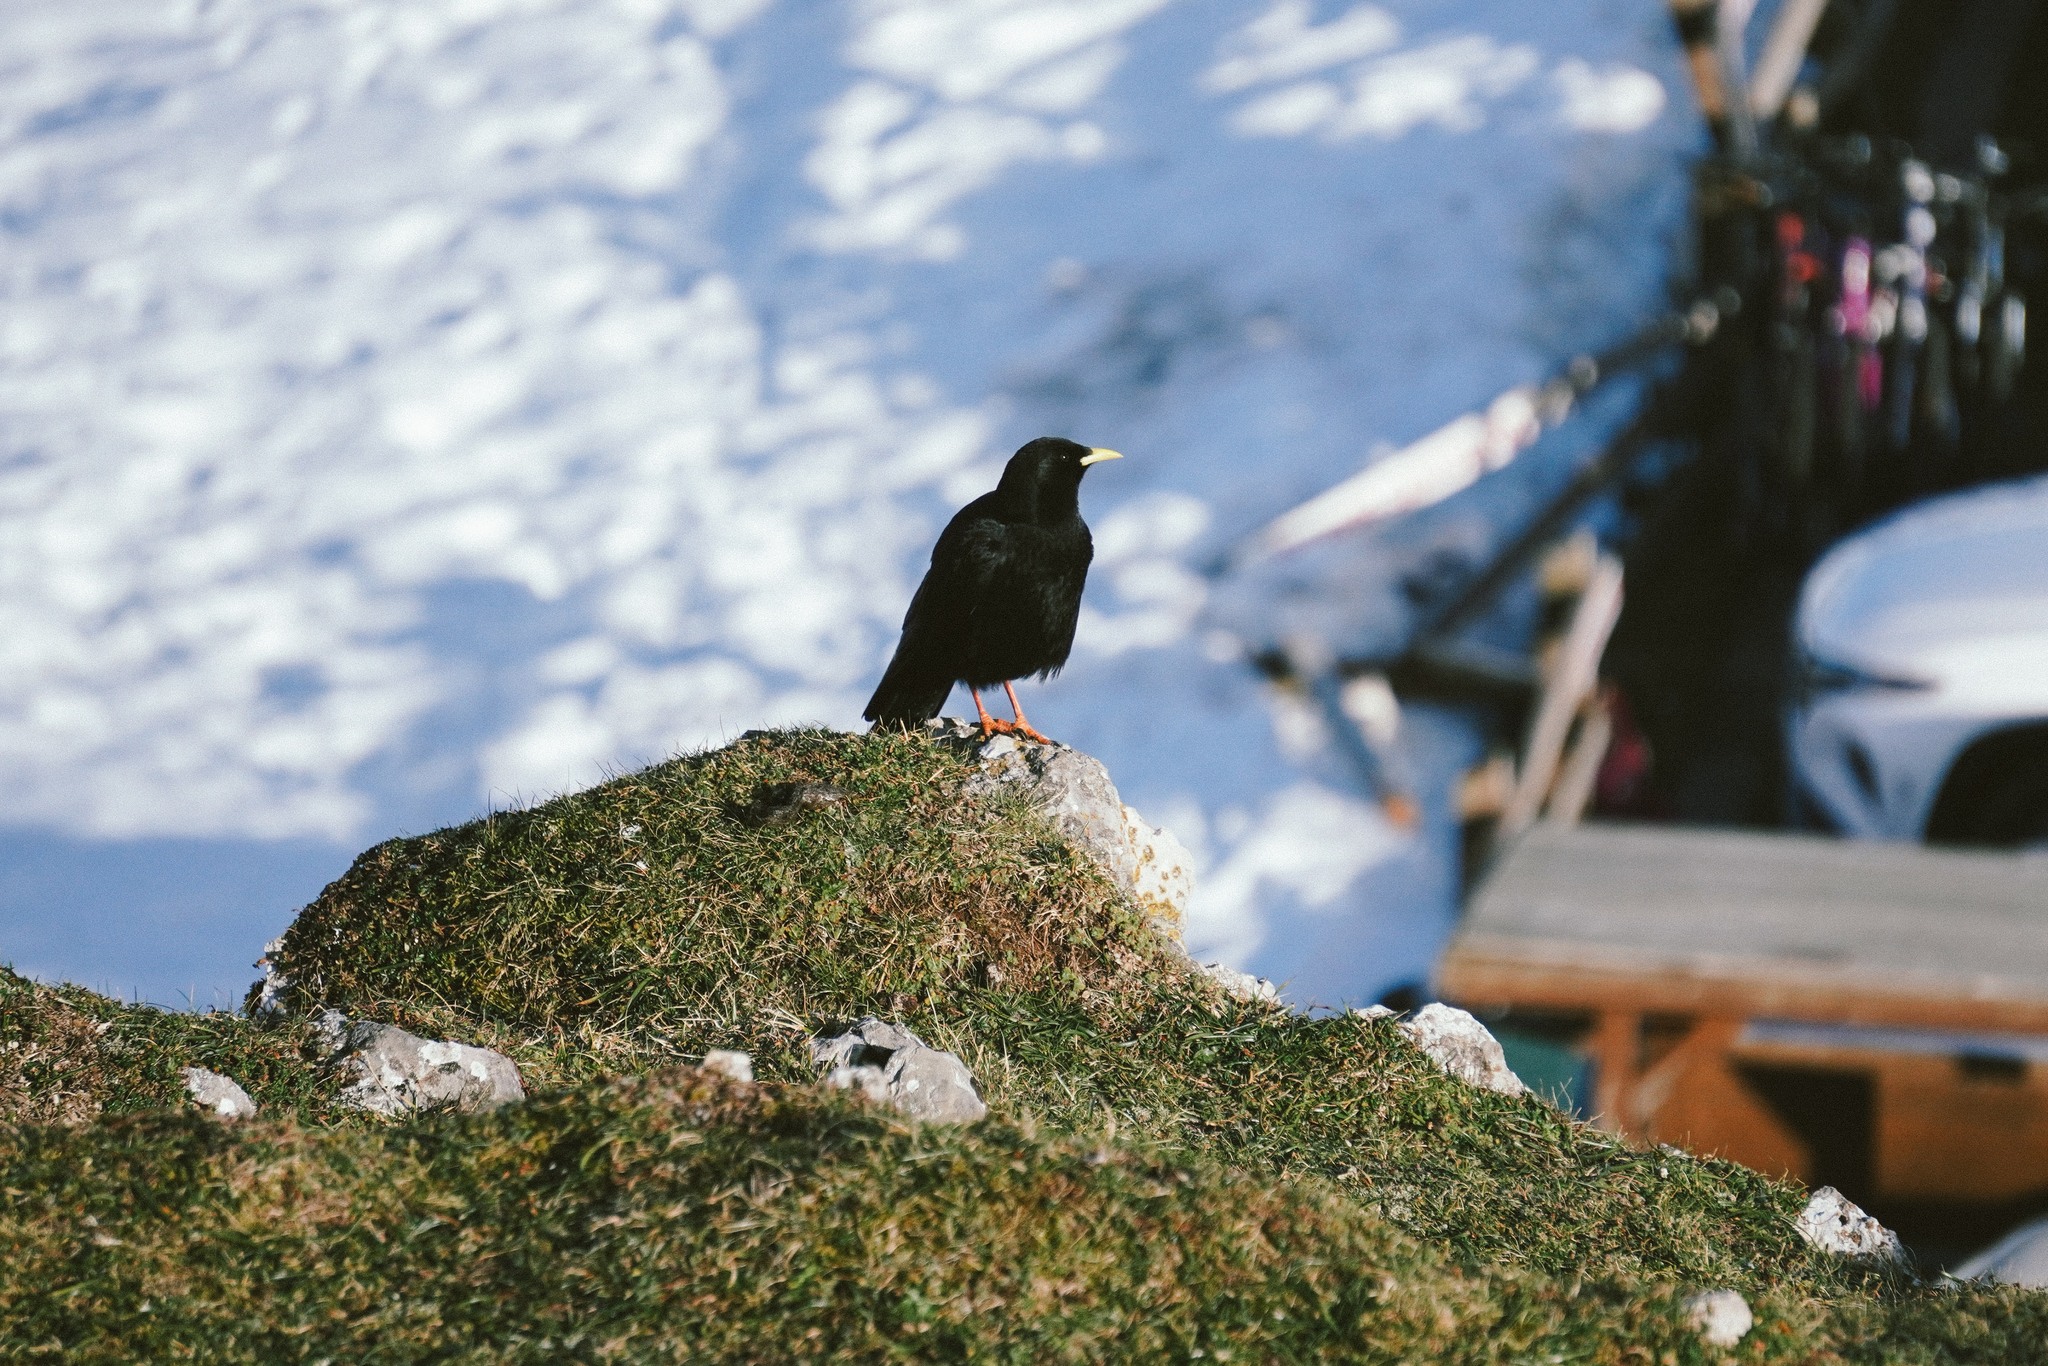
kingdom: Animalia
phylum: Chordata
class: Aves
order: Passeriformes
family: Corvidae
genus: Pyrrhocorax
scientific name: Pyrrhocorax graculus
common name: Alpine chough
